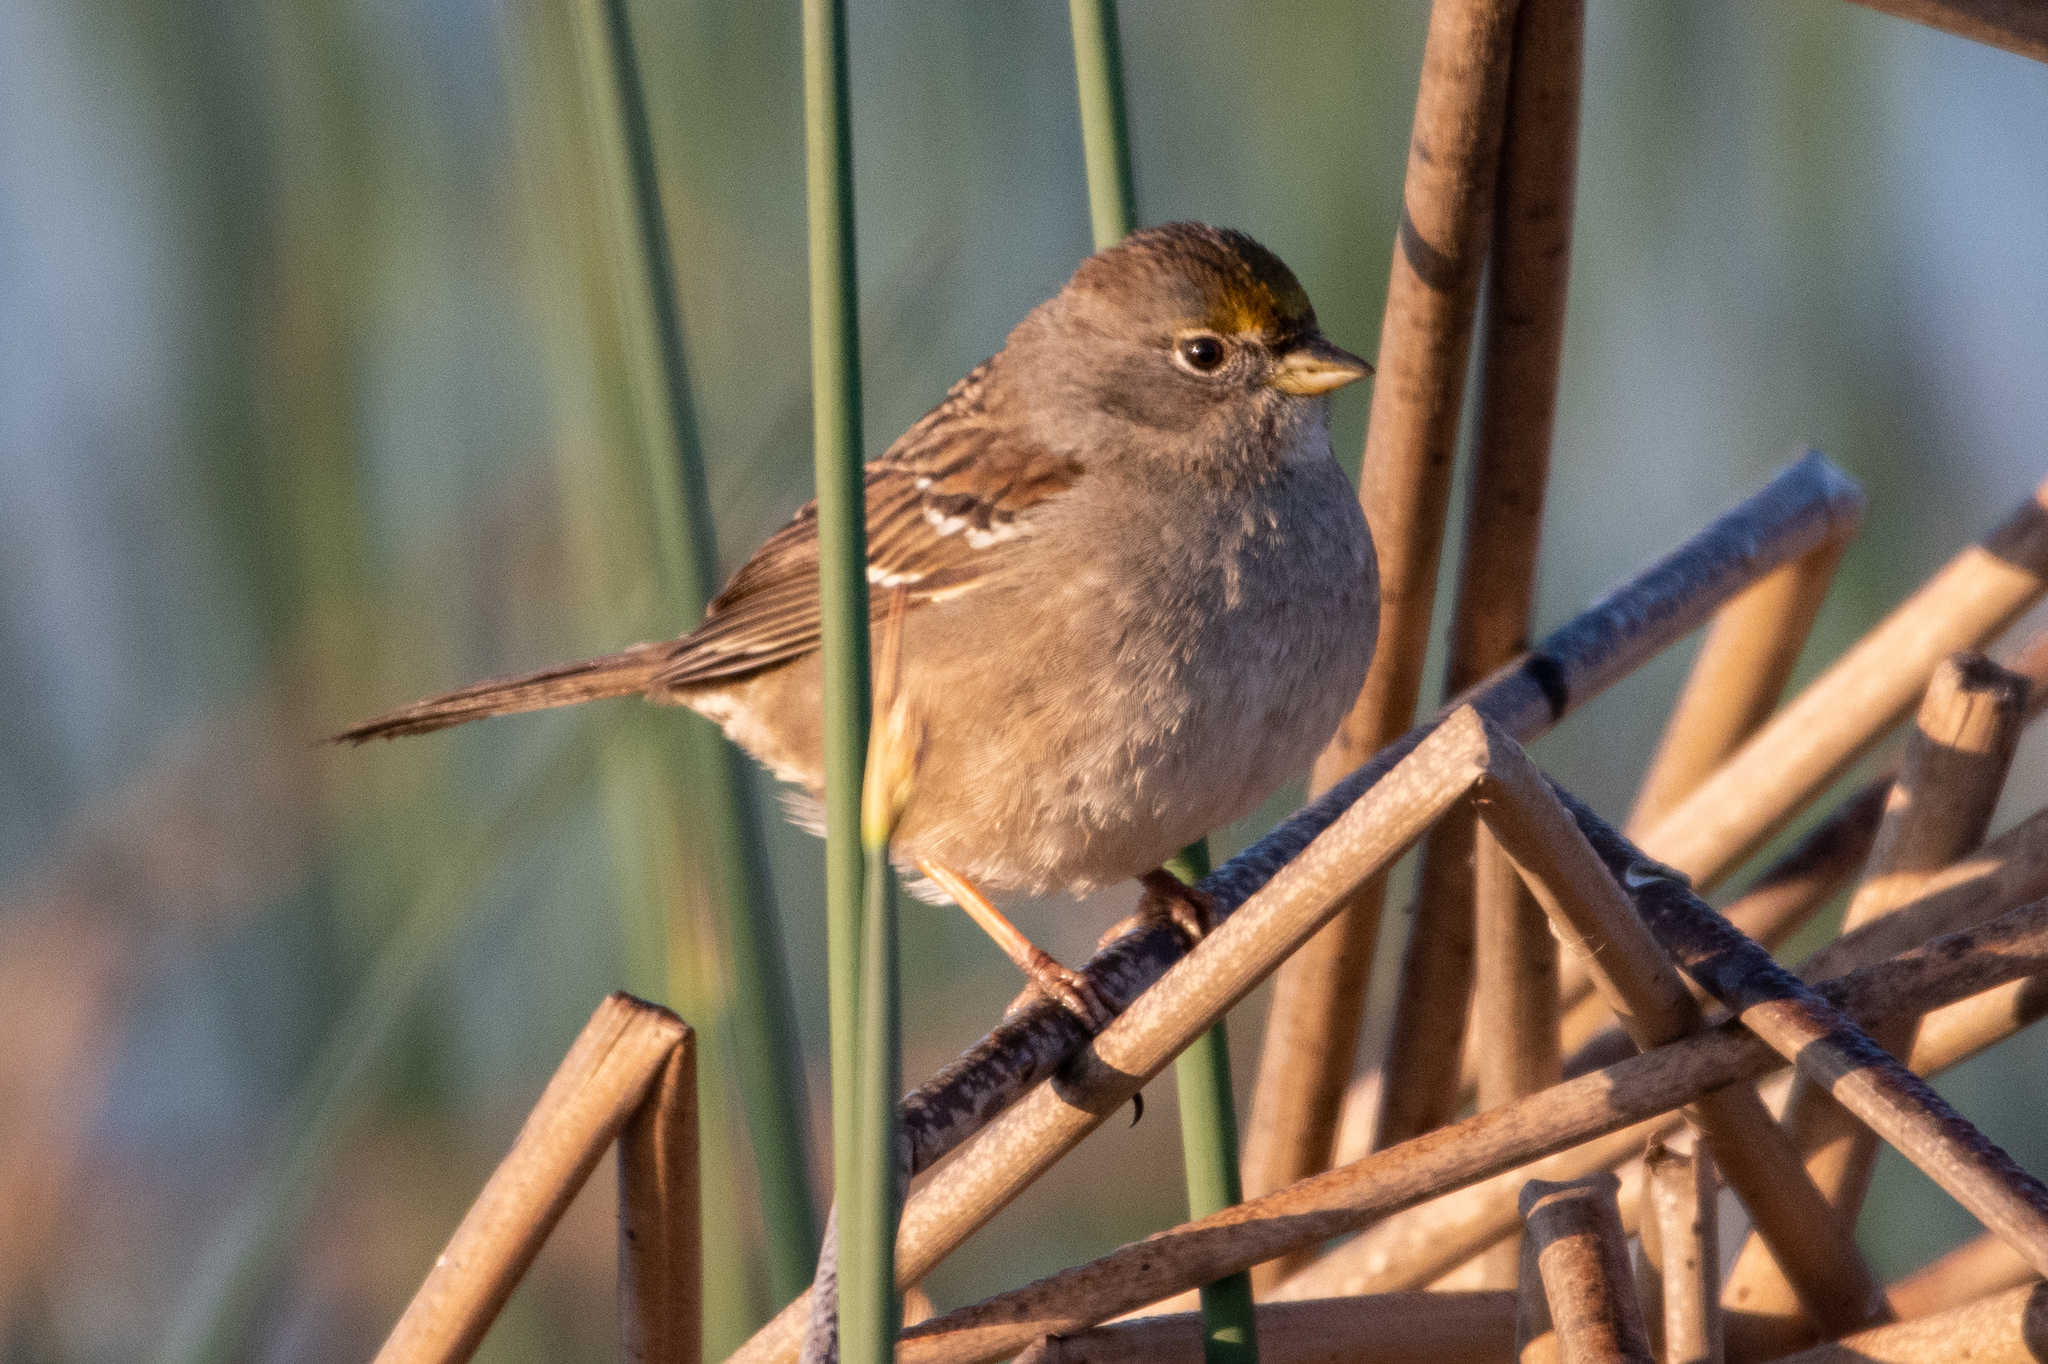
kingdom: Animalia
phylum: Chordata
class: Aves
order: Passeriformes
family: Passerellidae
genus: Zonotrichia
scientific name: Zonotrichia atricapilla
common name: Golden-crowned sparrow
